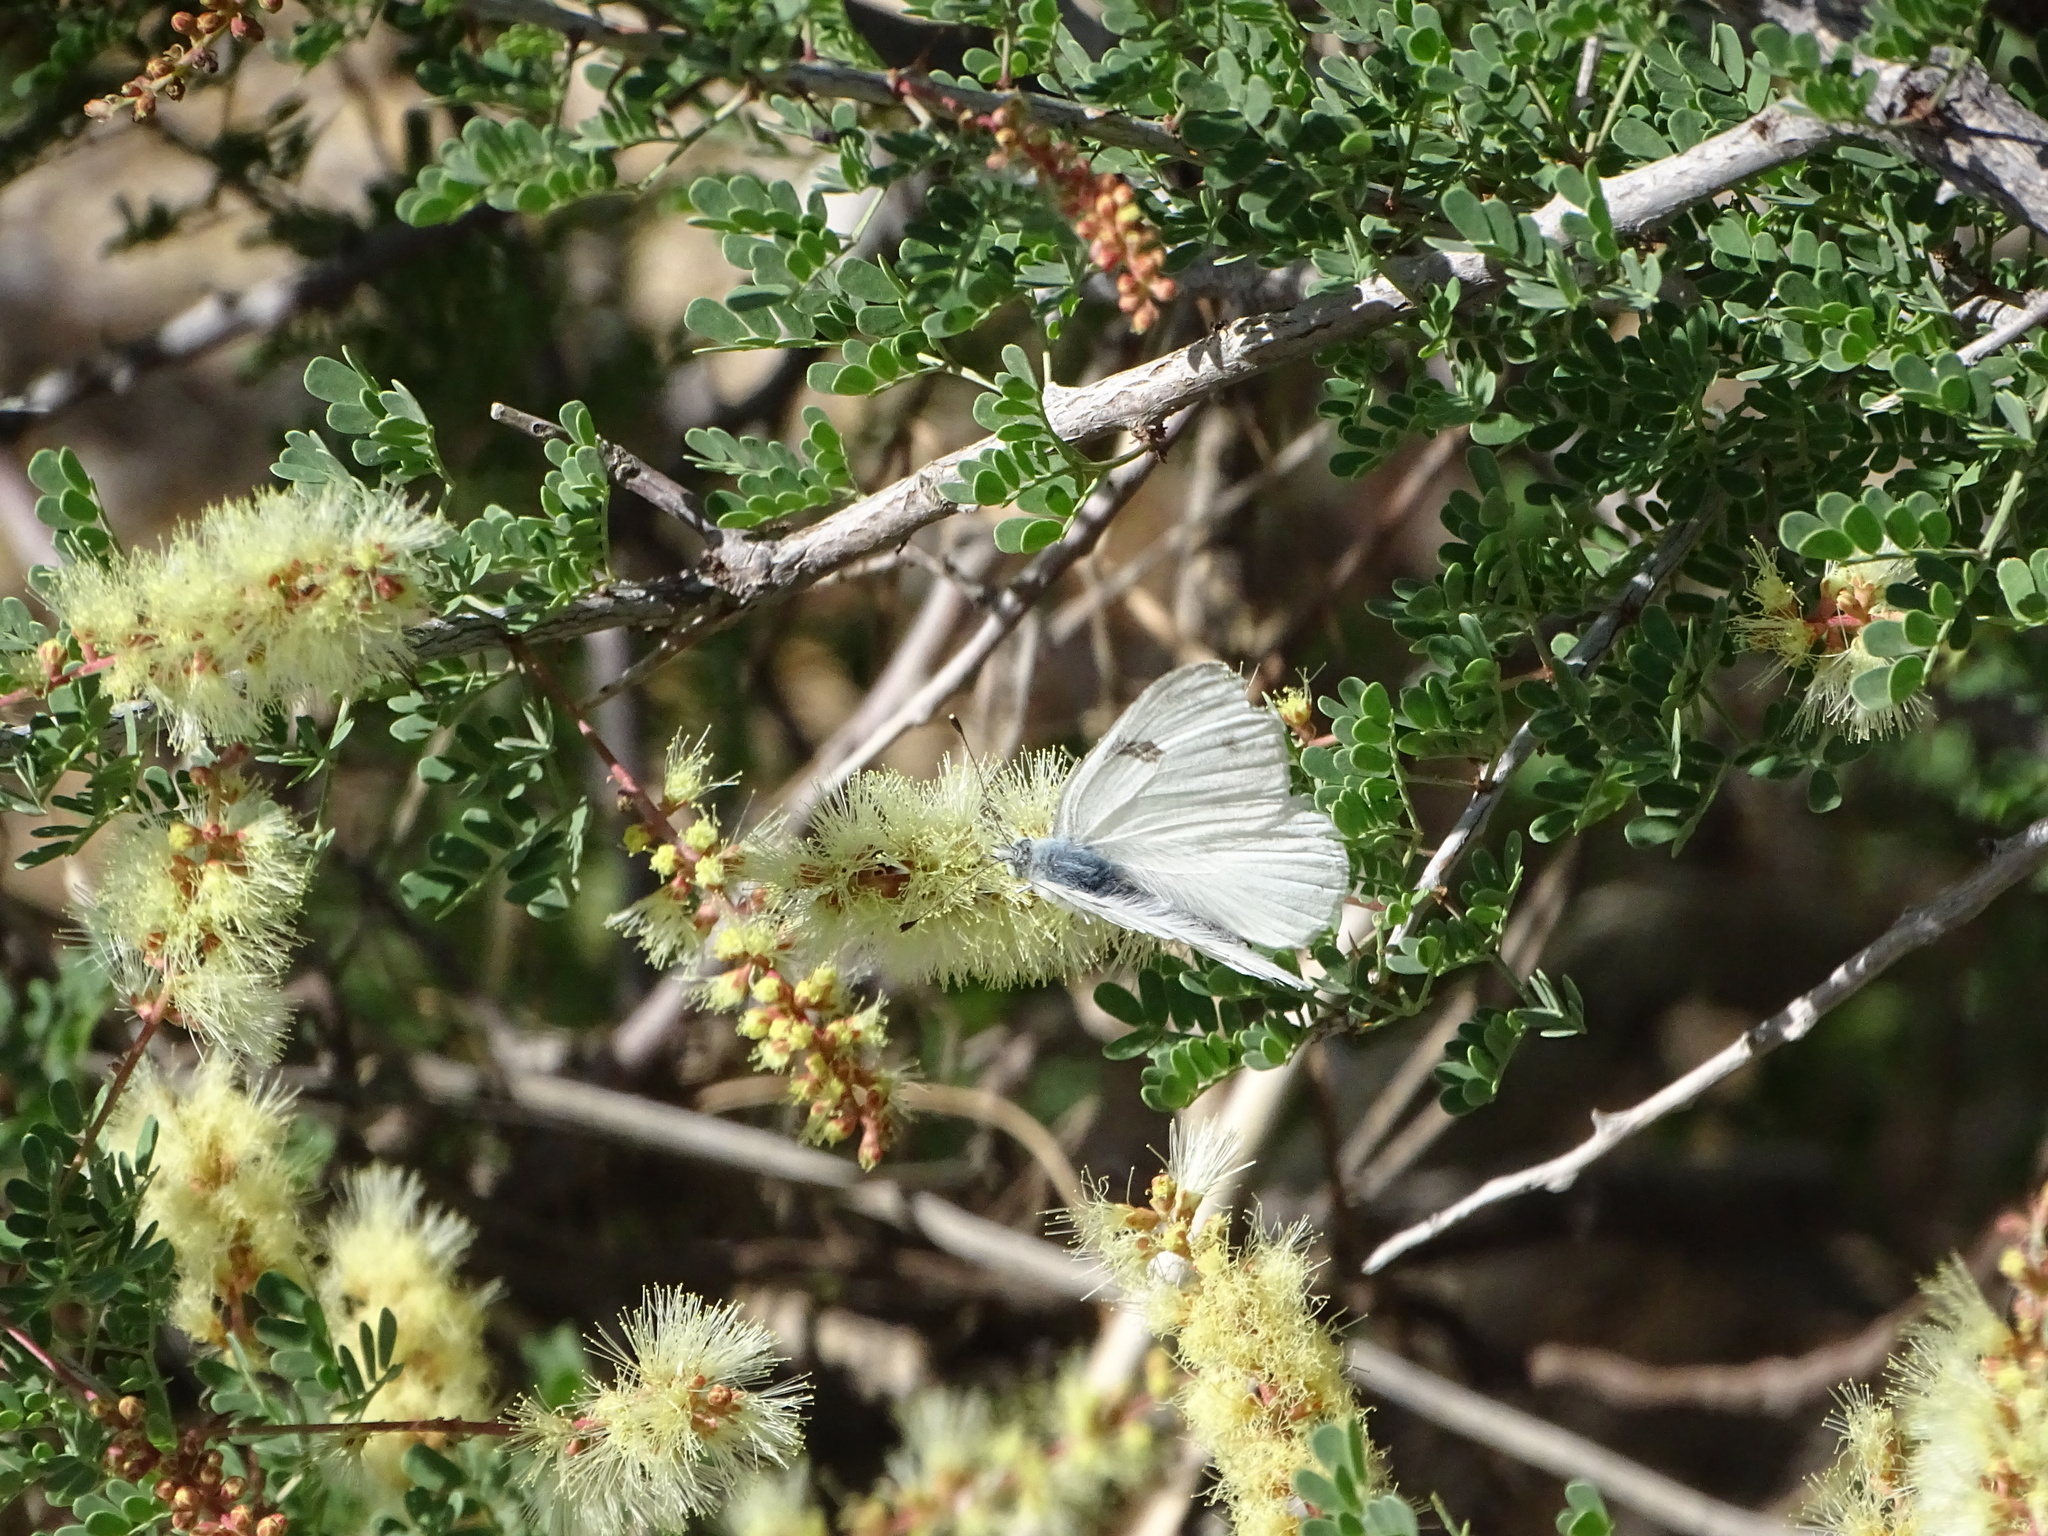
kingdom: Animalia
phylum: Arthropoda
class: Insecta
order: Lepidoptera
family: Pieridae
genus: Pontia
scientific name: Pontia protodice
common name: Checkered white
